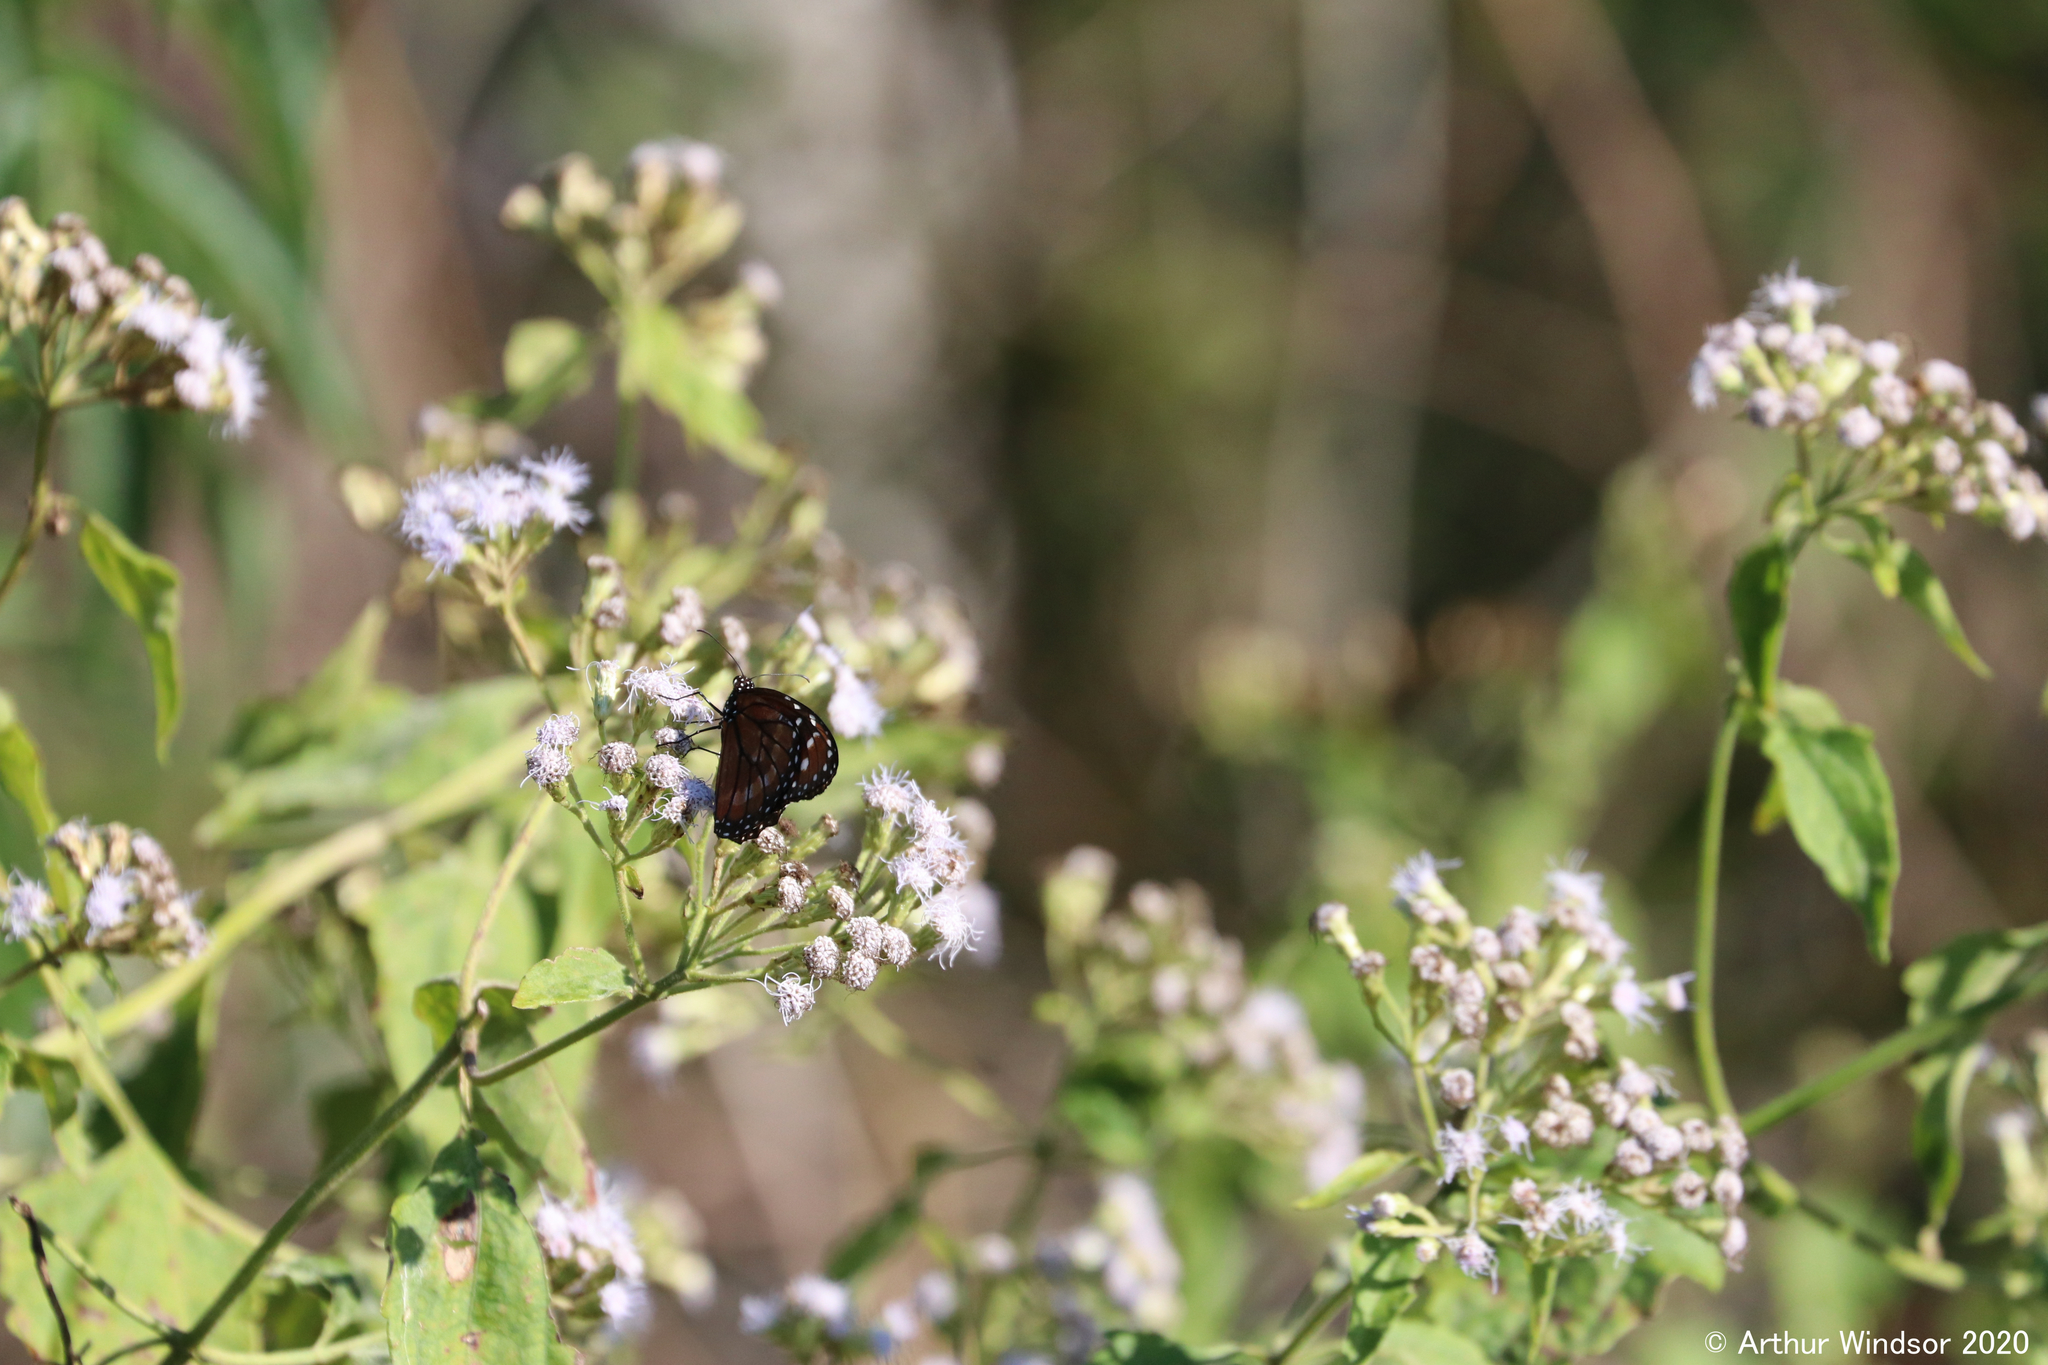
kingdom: Animalia
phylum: Arthropoda
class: Insecta
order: Lepidoptera
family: Nymphalidae
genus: Danaus
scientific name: Danaus eresimus
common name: Soldier
